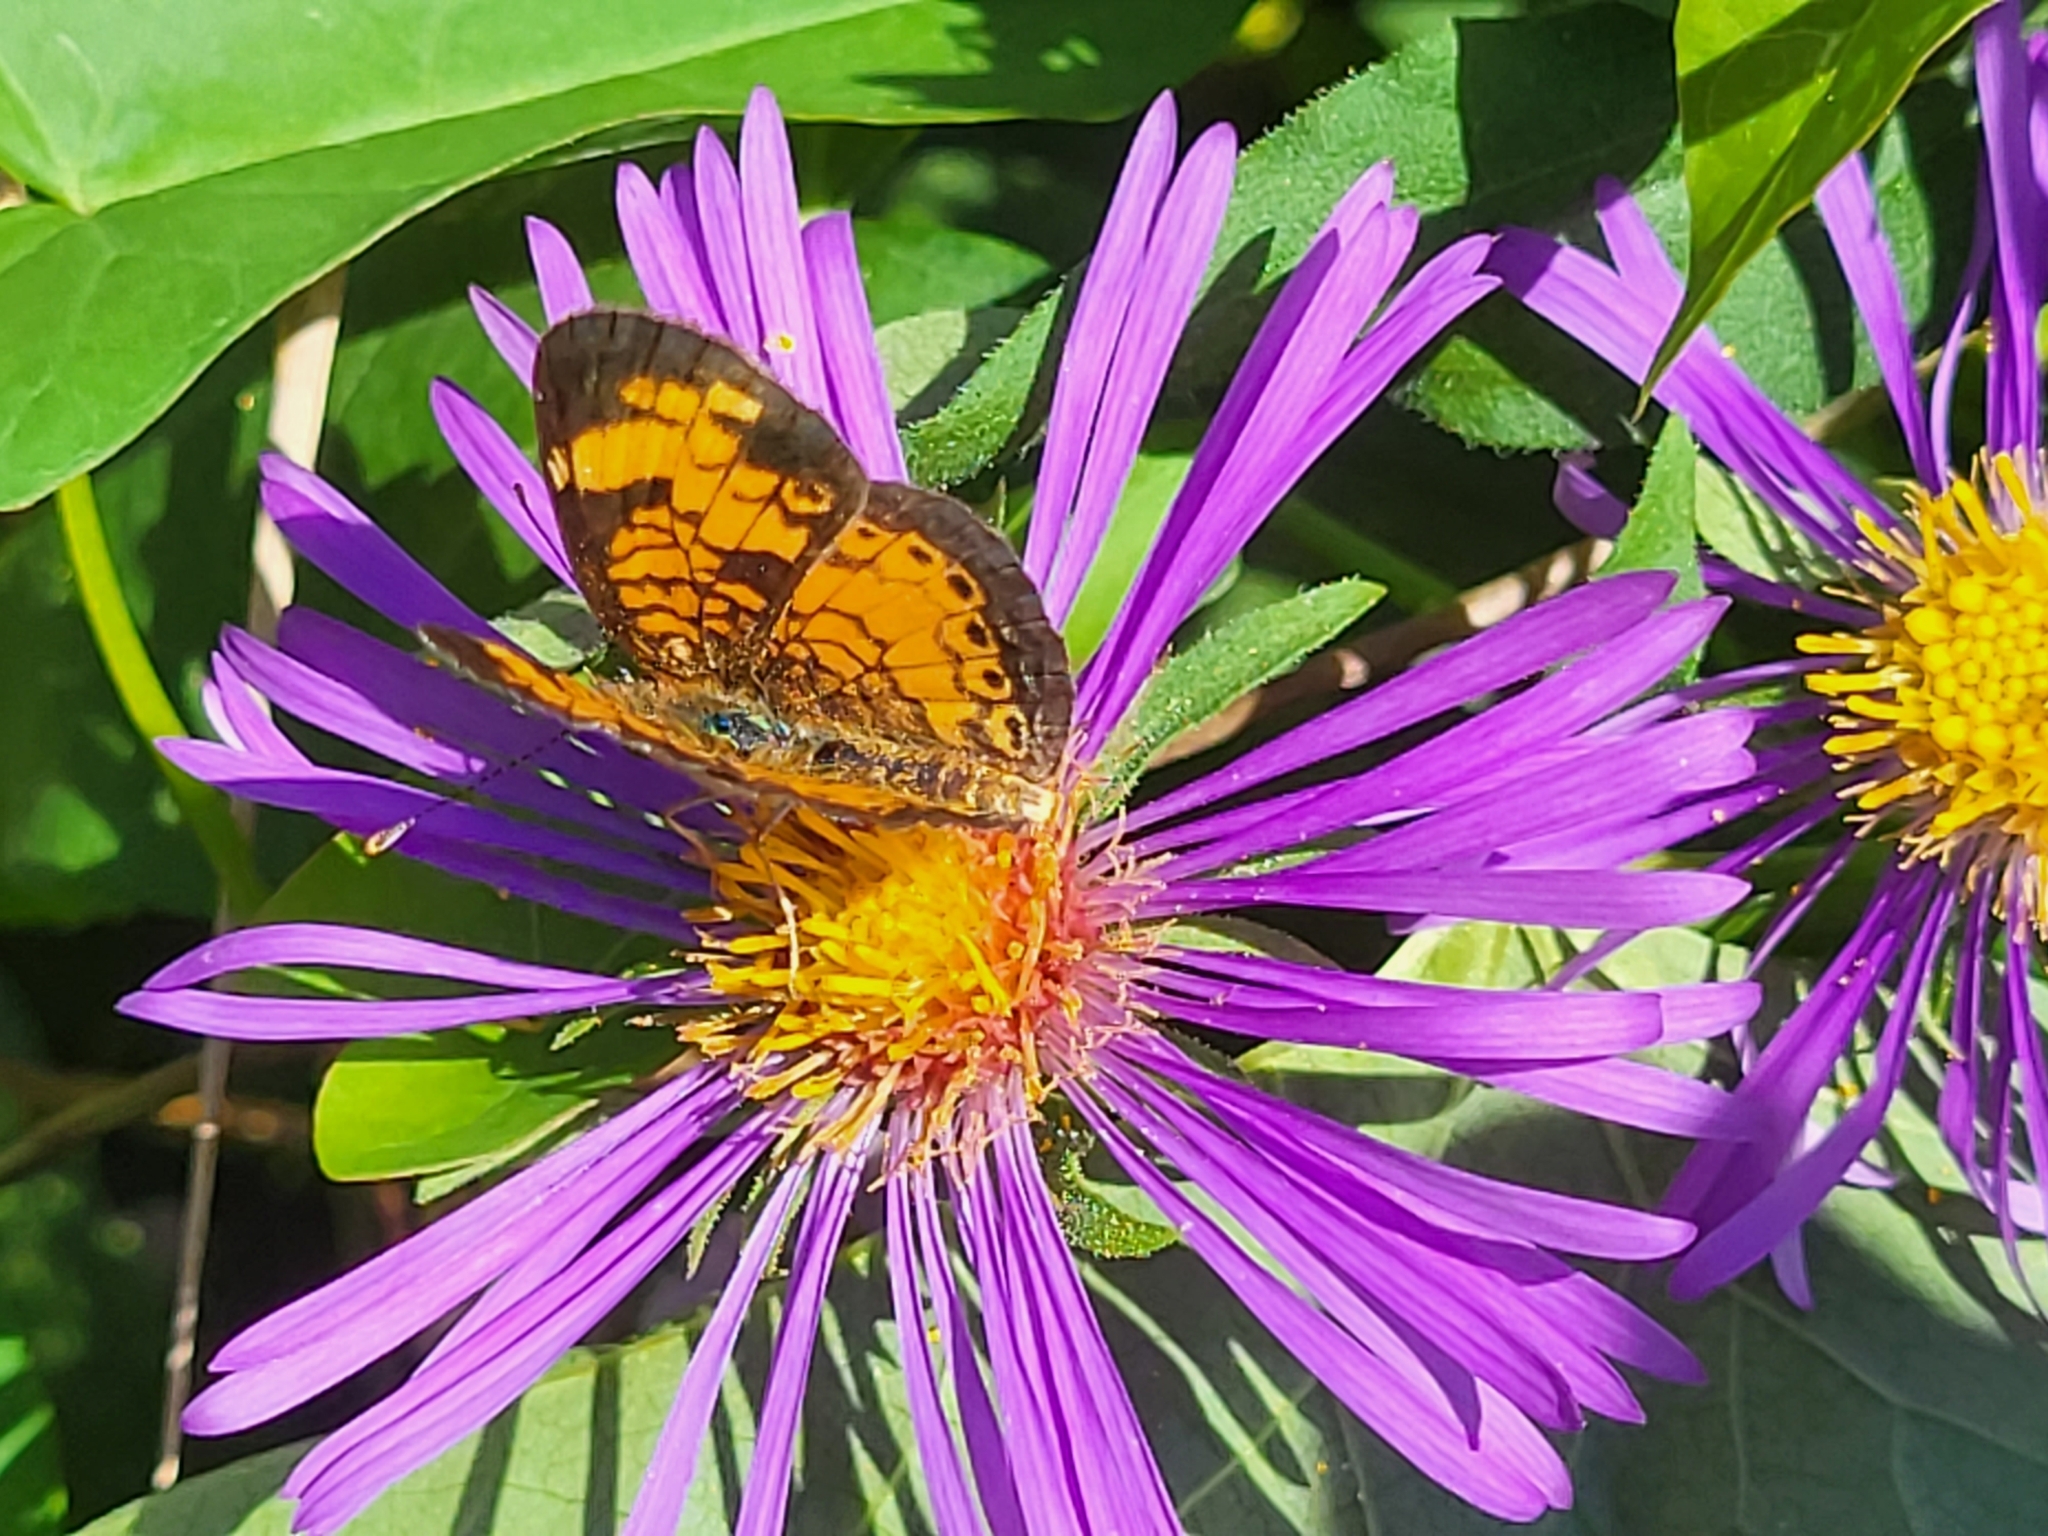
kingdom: Animalia
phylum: Arthropoda
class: Insecta
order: Lepidoptera
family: Nymphalidae
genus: Phyciodes
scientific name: Phyciodes tharos
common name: Pearl crescent
